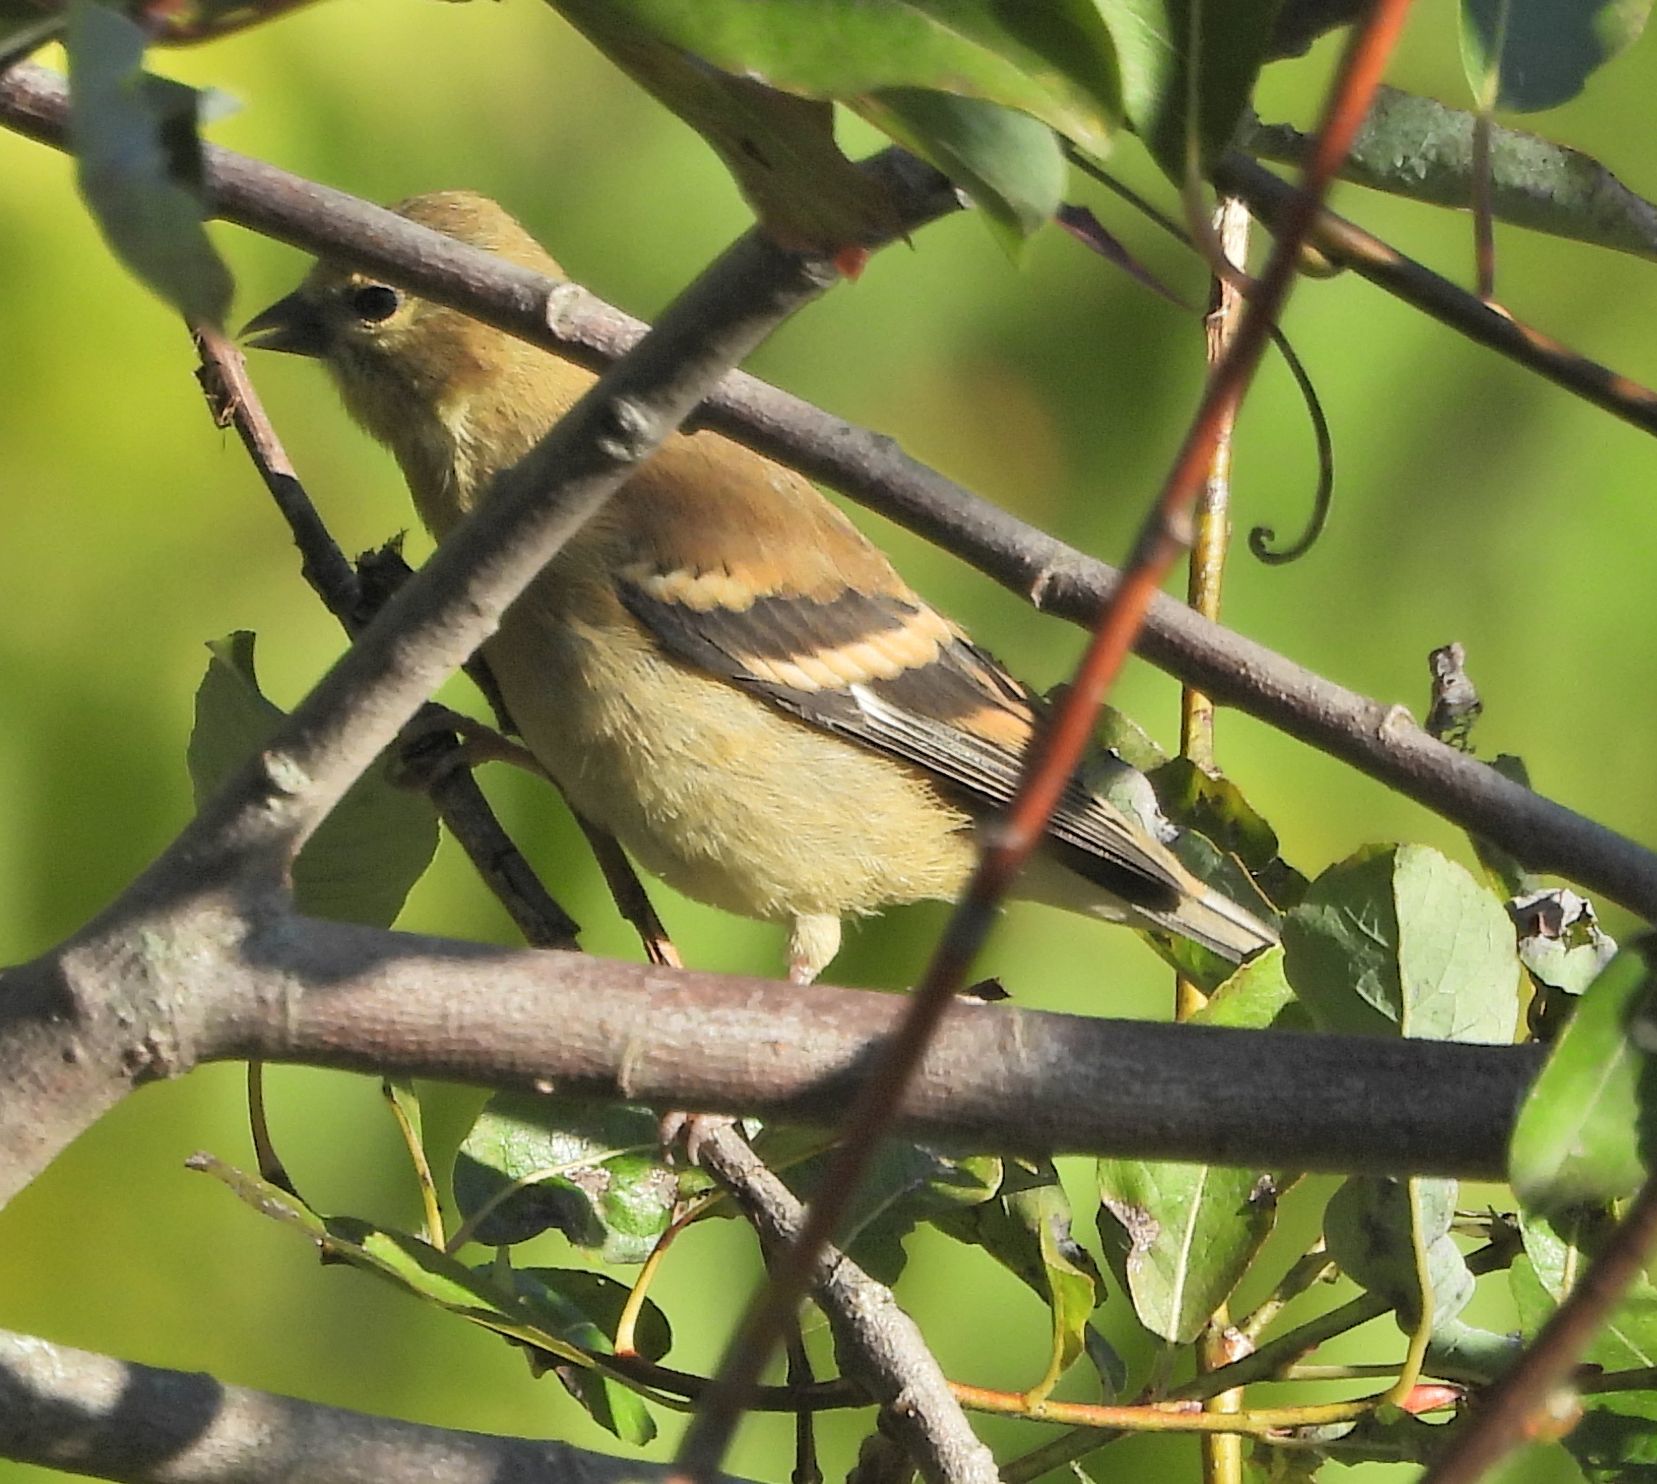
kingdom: Animalia
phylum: Chordata
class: Aves
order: Passeriformes
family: Fringillidae
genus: Spinus
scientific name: Spinus tristis
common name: American goldfinch
